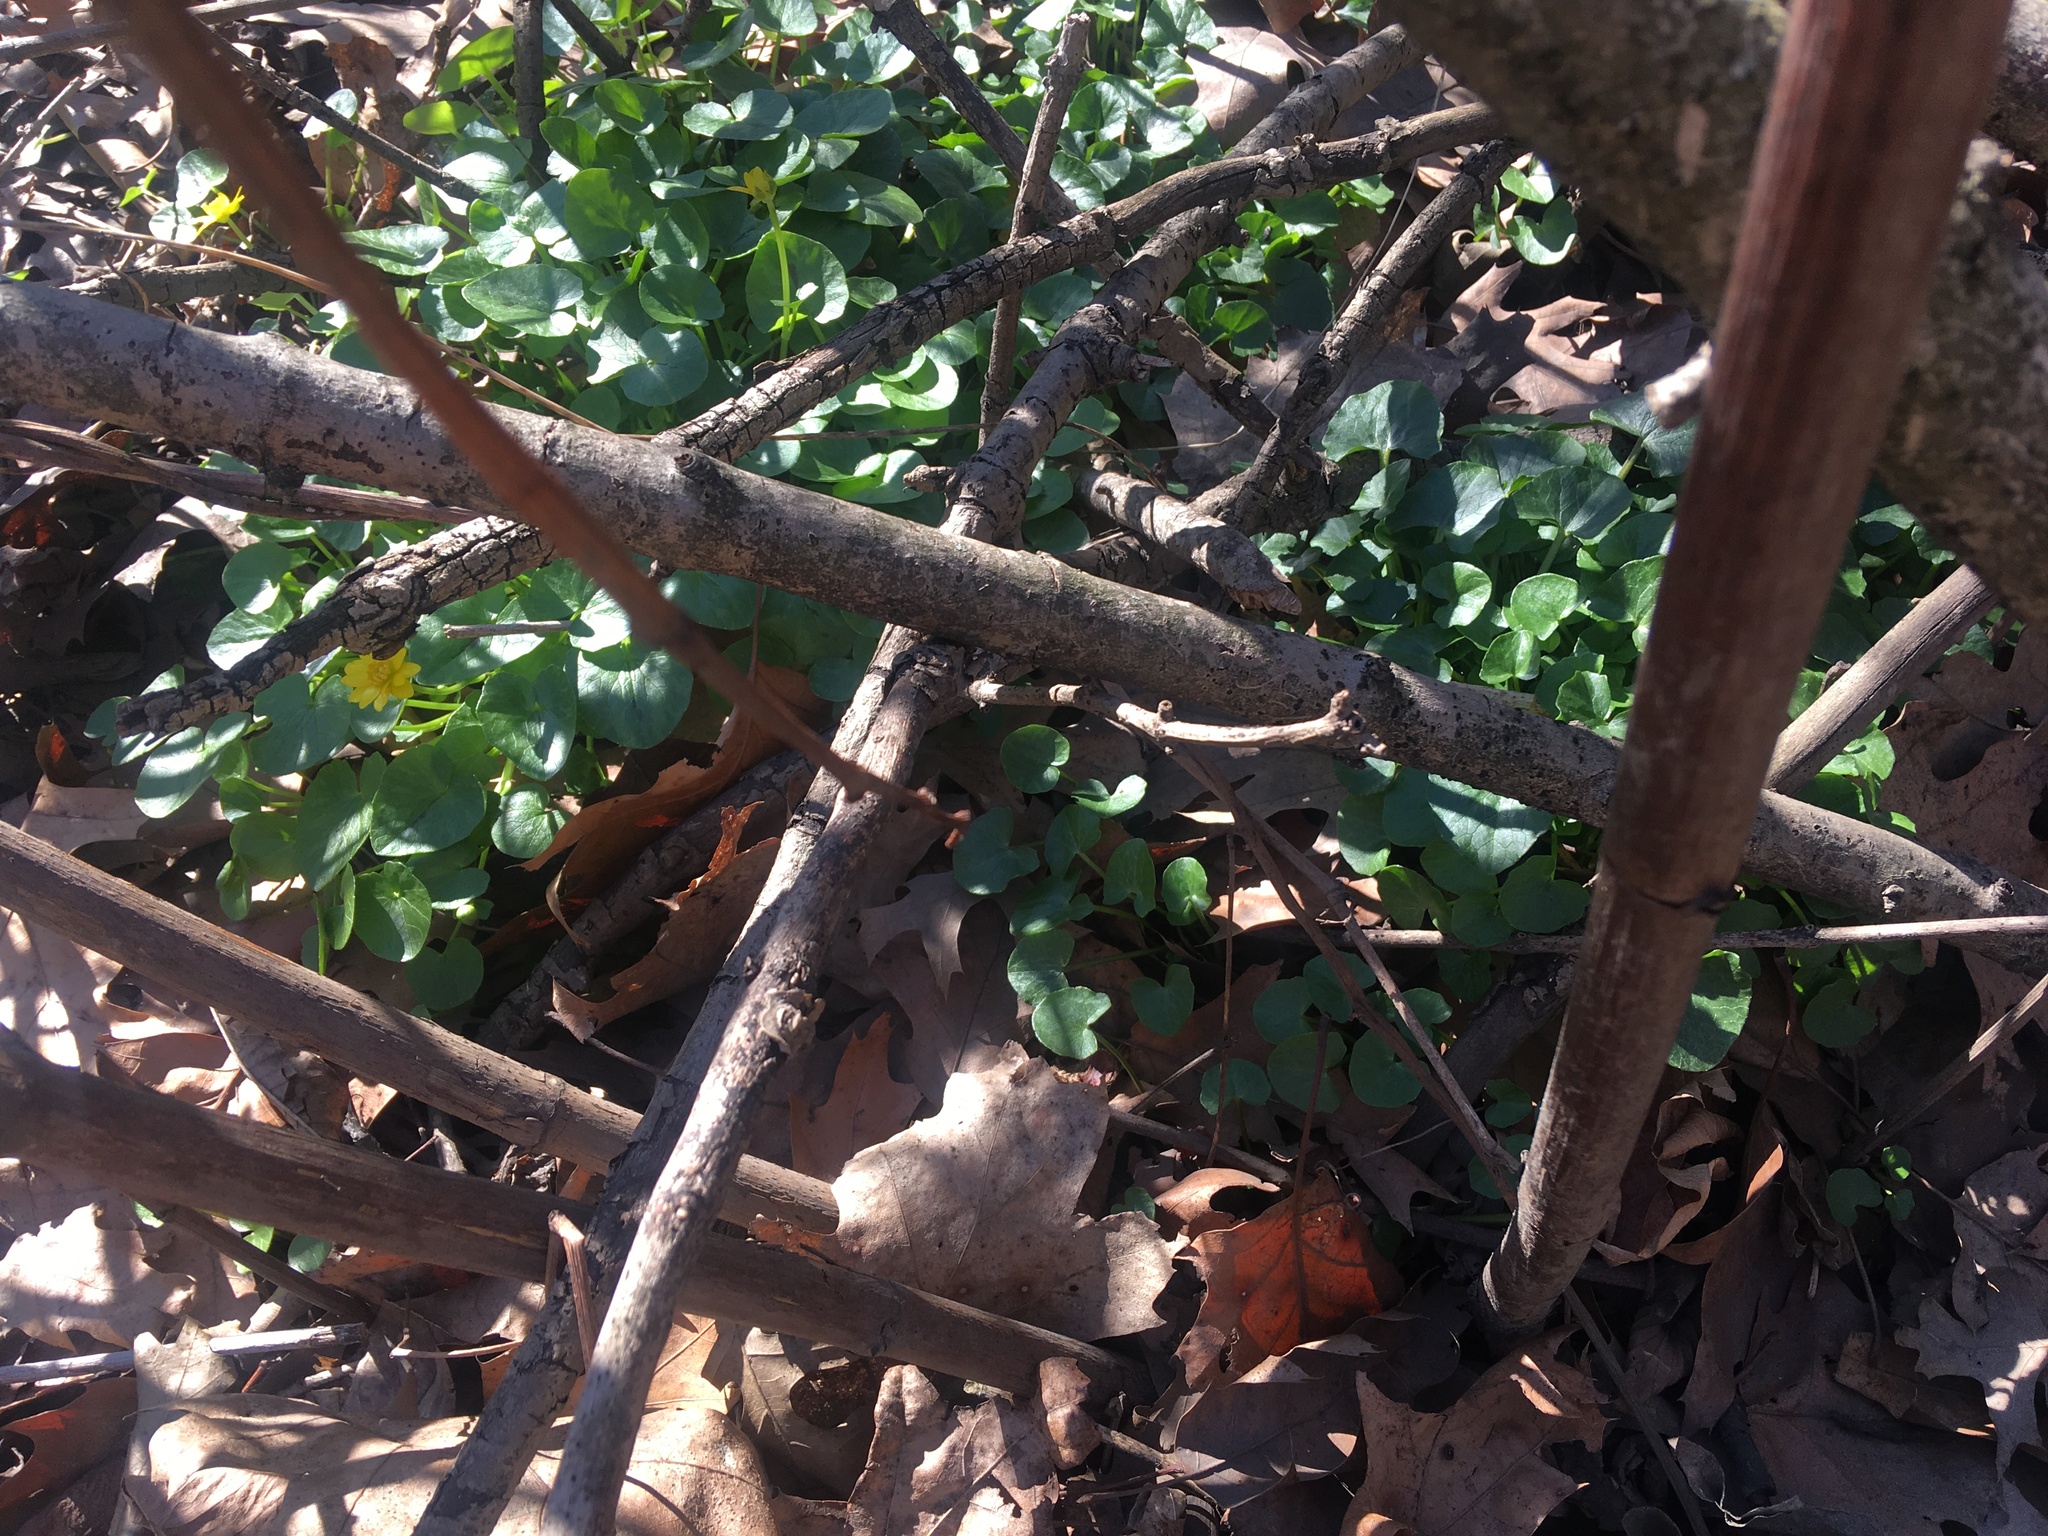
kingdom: Plantae
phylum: Tracheophyta
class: Magnoliopsida
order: Ranunculales
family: Ranunculaceae
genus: Ficaria
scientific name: Ficaria verna
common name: Lesser celandine
